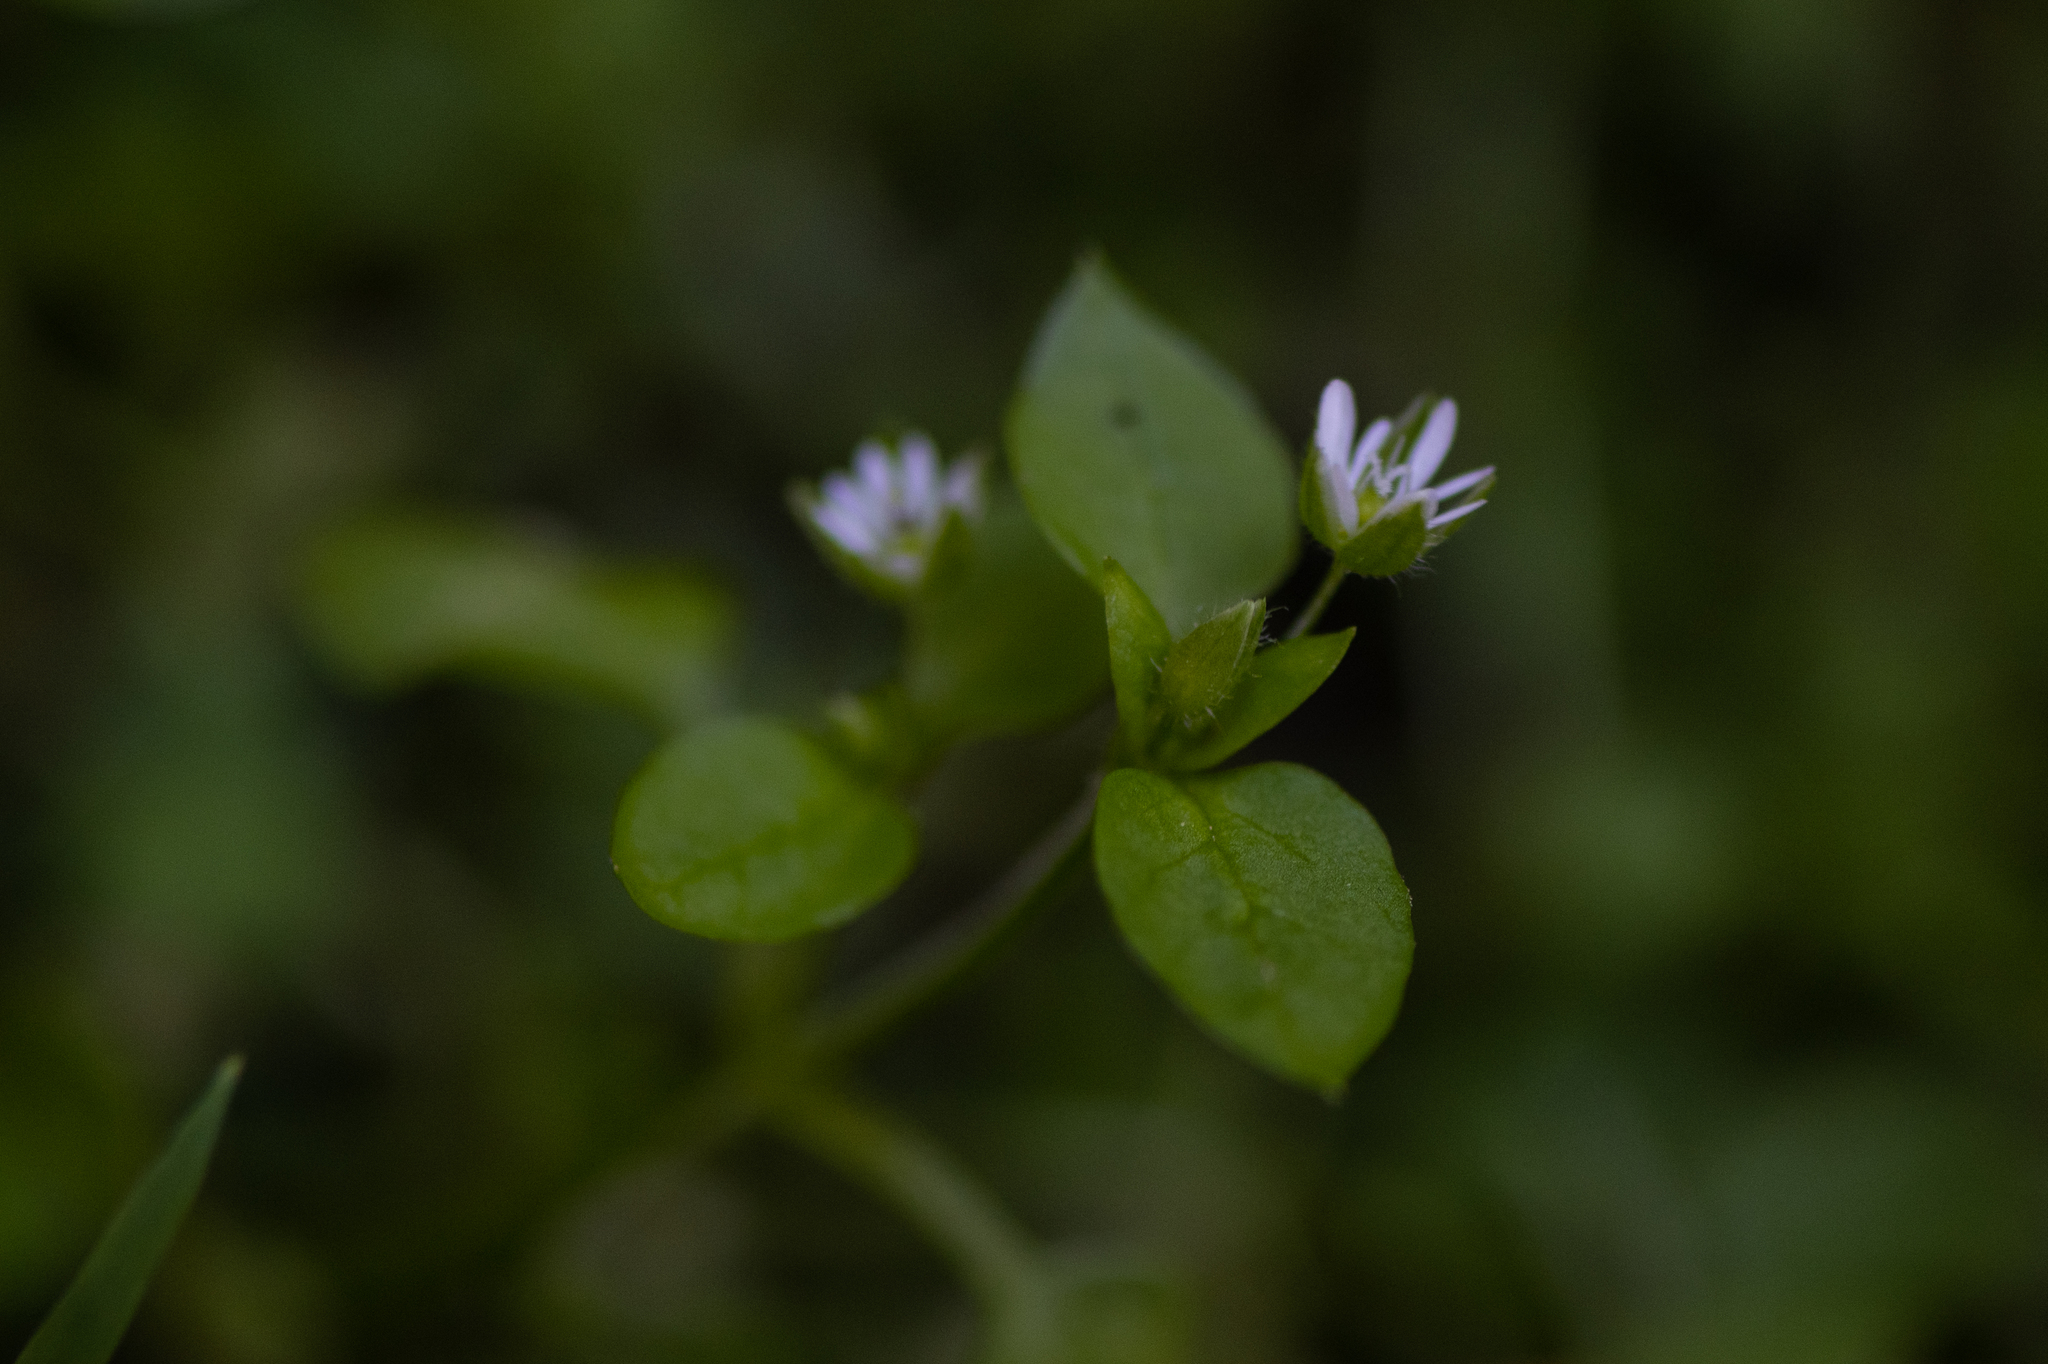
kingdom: Plantae
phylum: Tracheophyta
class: Magnoliopsida
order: Caryophyllales
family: Caryophyllaceae
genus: Stellaria
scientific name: Stellaria media
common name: Common chickweed
